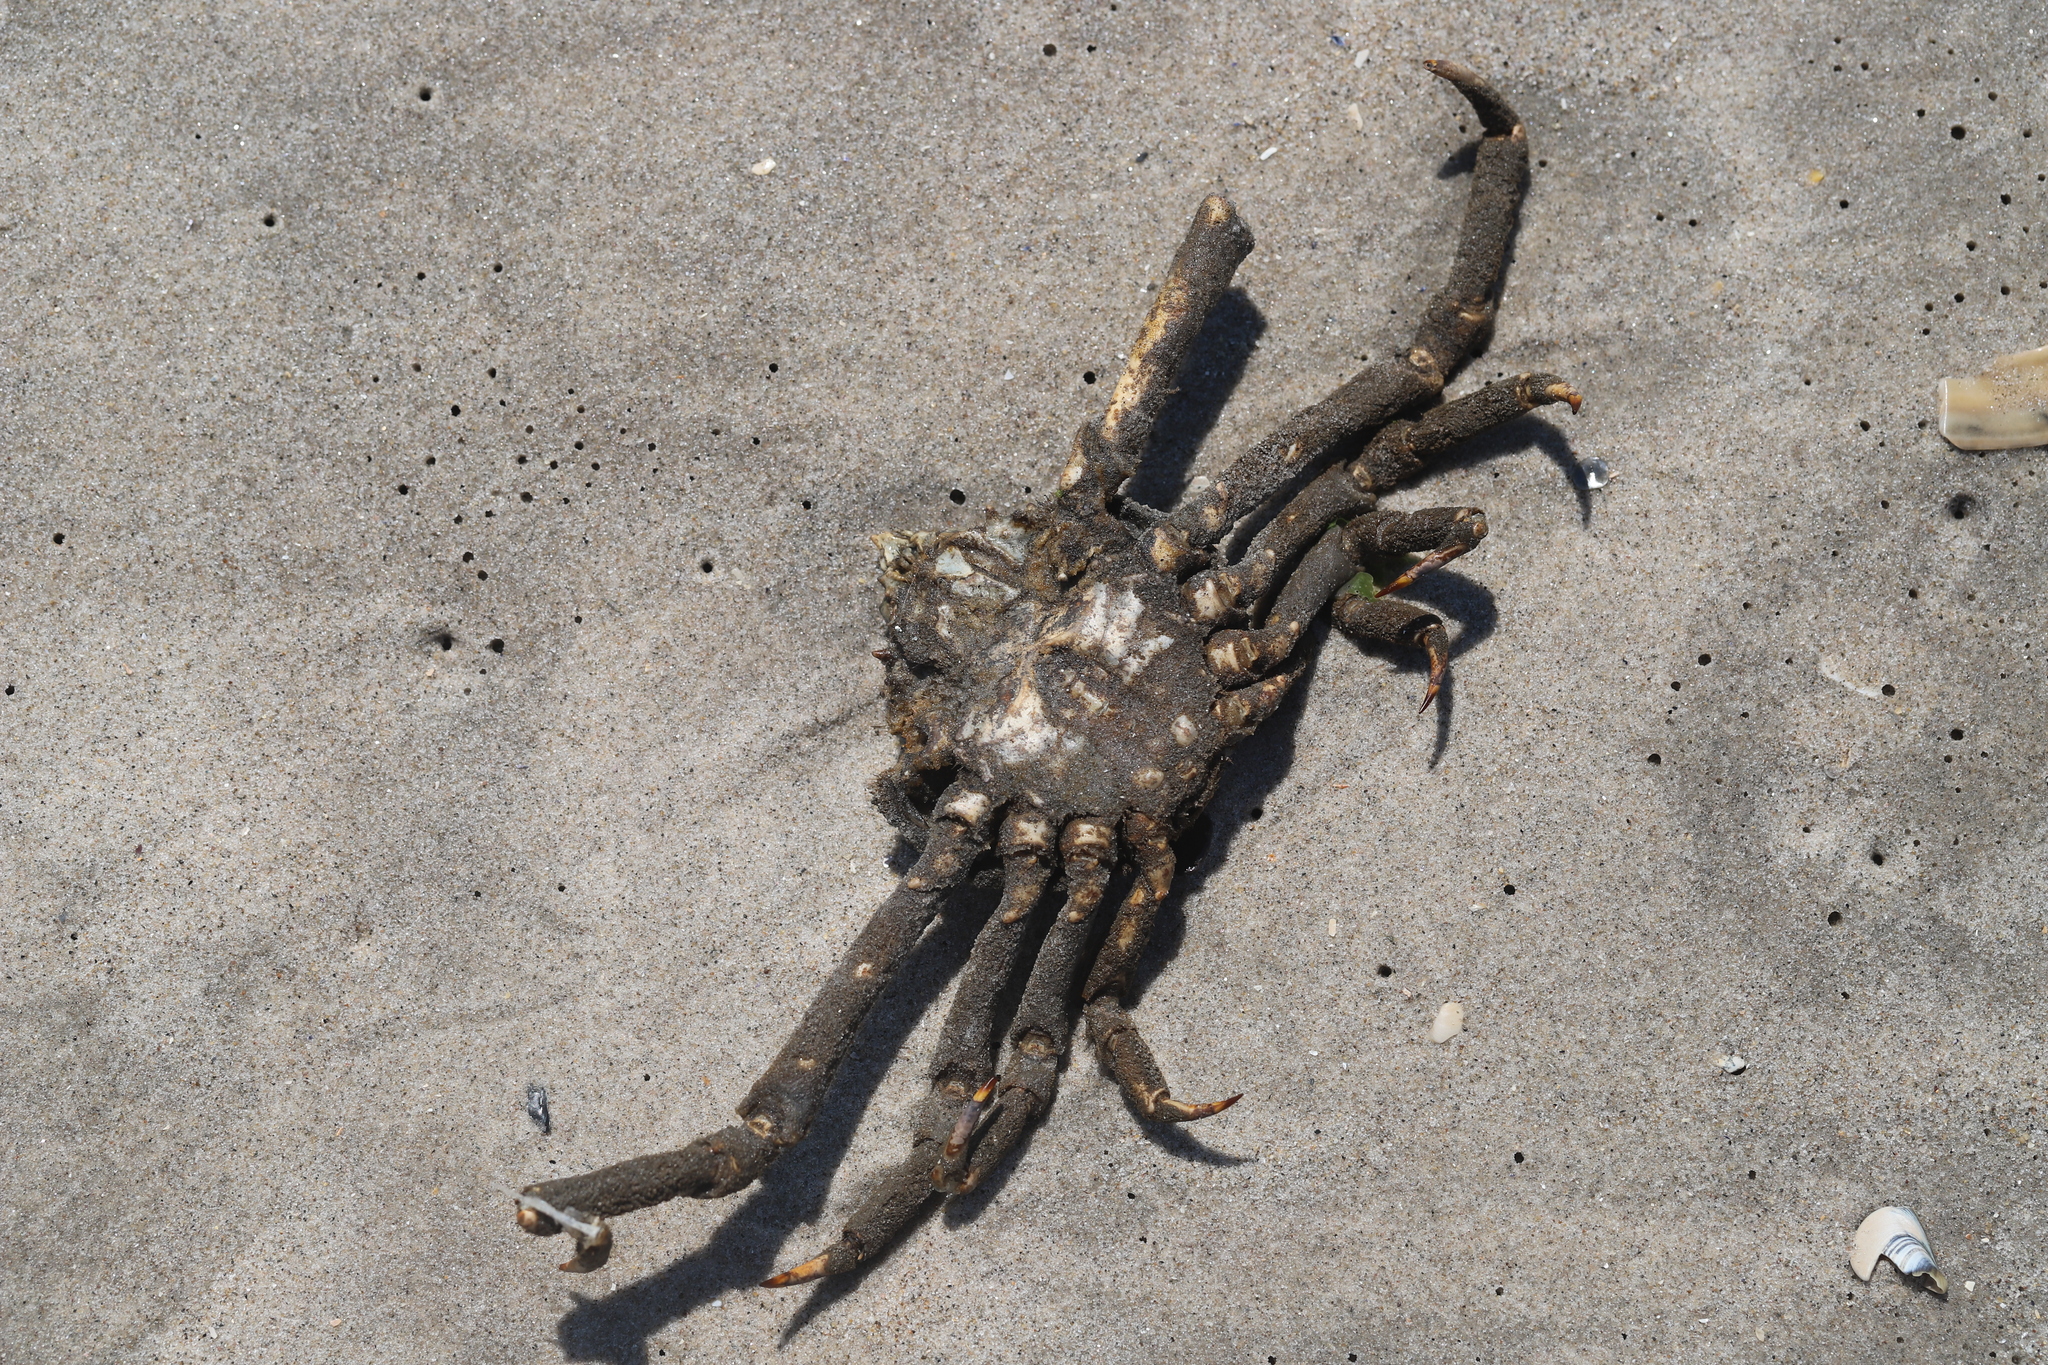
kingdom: Animalia
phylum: Arthropoda
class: Malacostraca
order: Decapoda
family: Epialtidae
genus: Libinia
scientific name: Libinia emarginata
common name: Common spider crab
